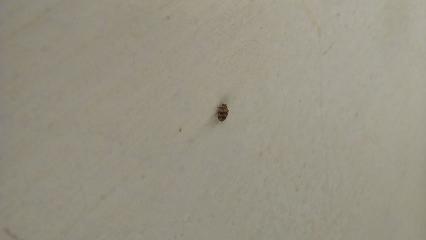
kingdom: Animalia
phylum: Arthropoda
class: Insecta
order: Coleoptera
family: Dermestidae
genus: Anthrenus
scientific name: Anthrenus verbasci
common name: Varied carpet beetle
